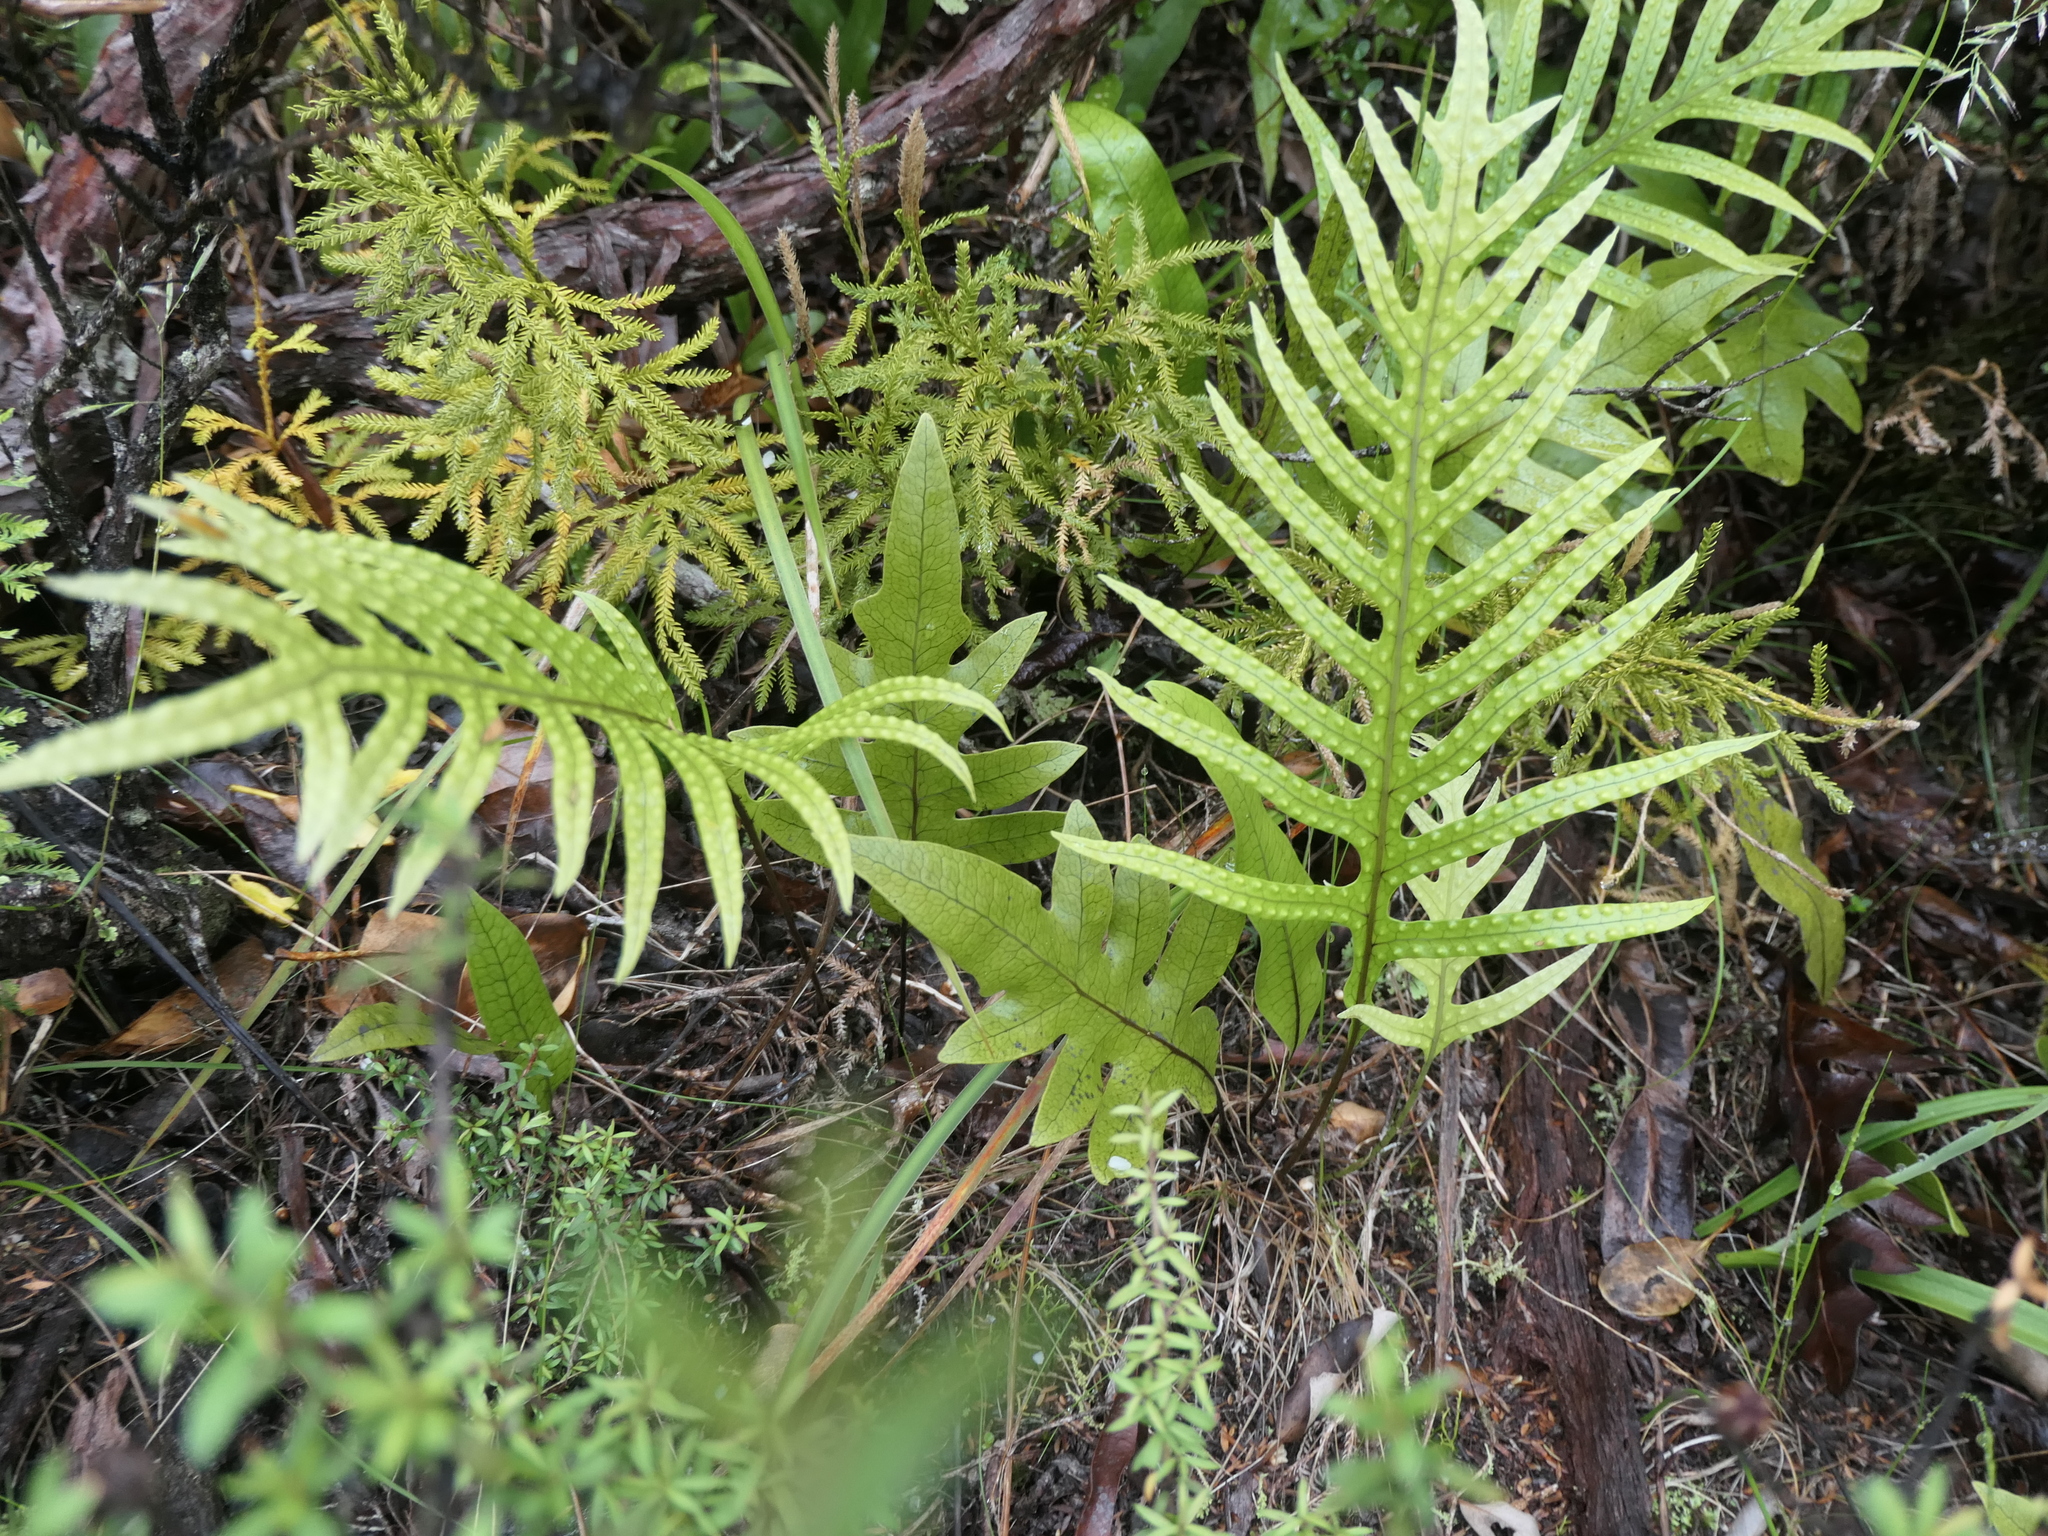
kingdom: Plantae
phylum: Tracheophyta
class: Polypodiopsida
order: Polypodiales
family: Polypodiaceae
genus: Lecanopteris
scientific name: Lecanopteris pustulata
